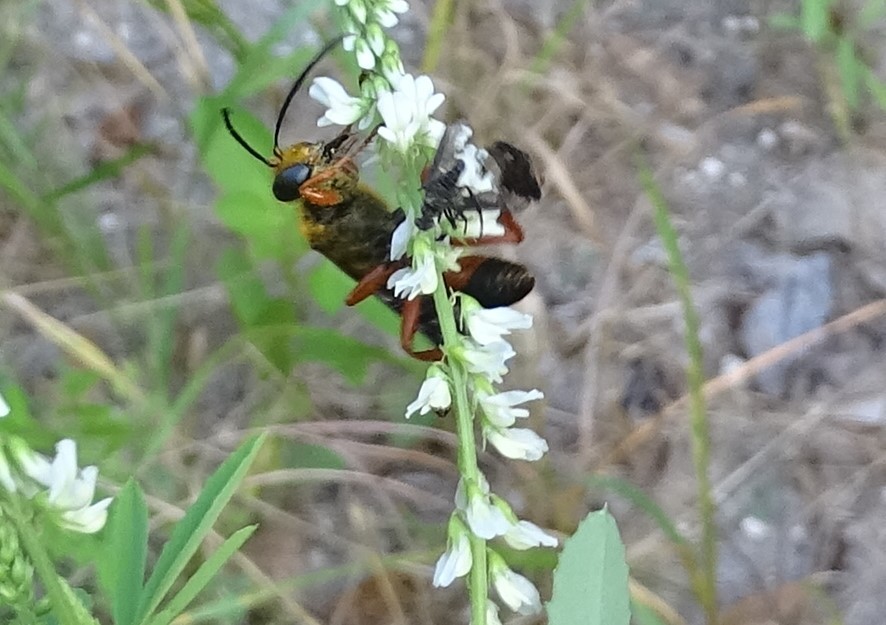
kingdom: Animalia
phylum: Arthropoda
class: Insecta
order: Hymenoptera
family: Sphecidae
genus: Sphex
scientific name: Sphex ichneumoneus
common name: Great golden digger wasp
